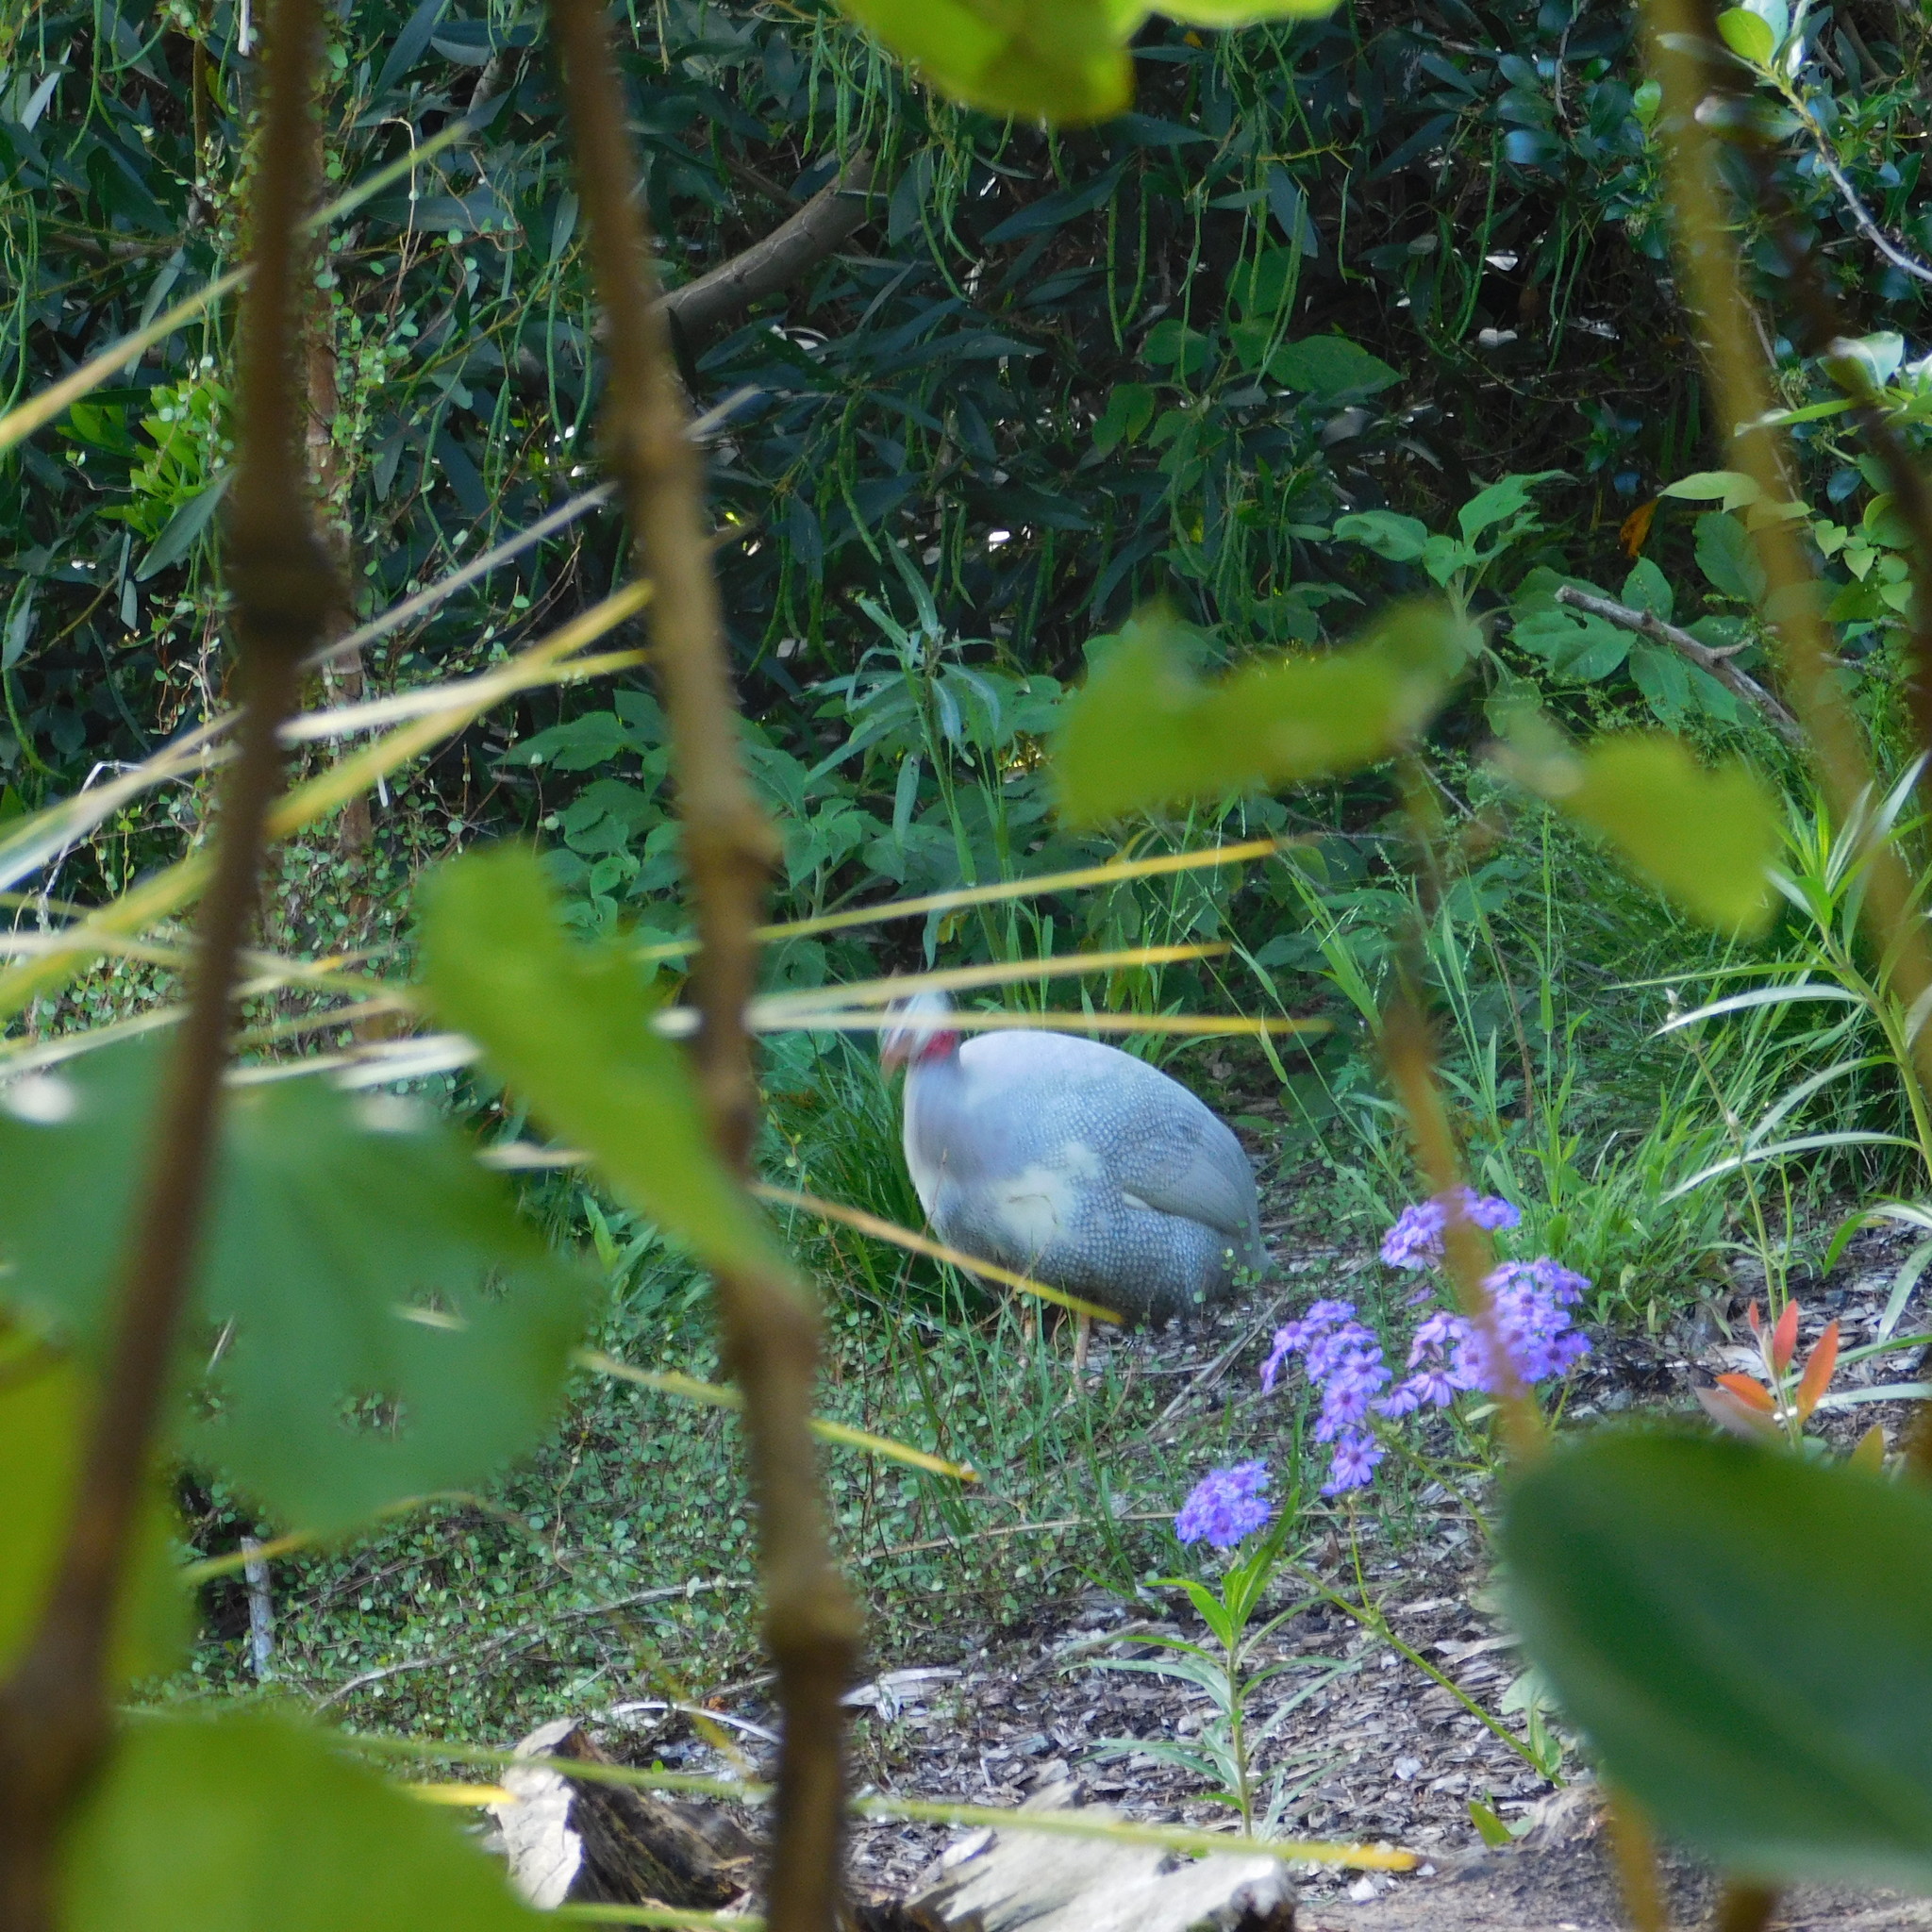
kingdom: Animalia
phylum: Chordata
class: Aves
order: Galliformes
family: Numididae
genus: Numida
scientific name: Numida meleagris
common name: Helmeted guineafowl
